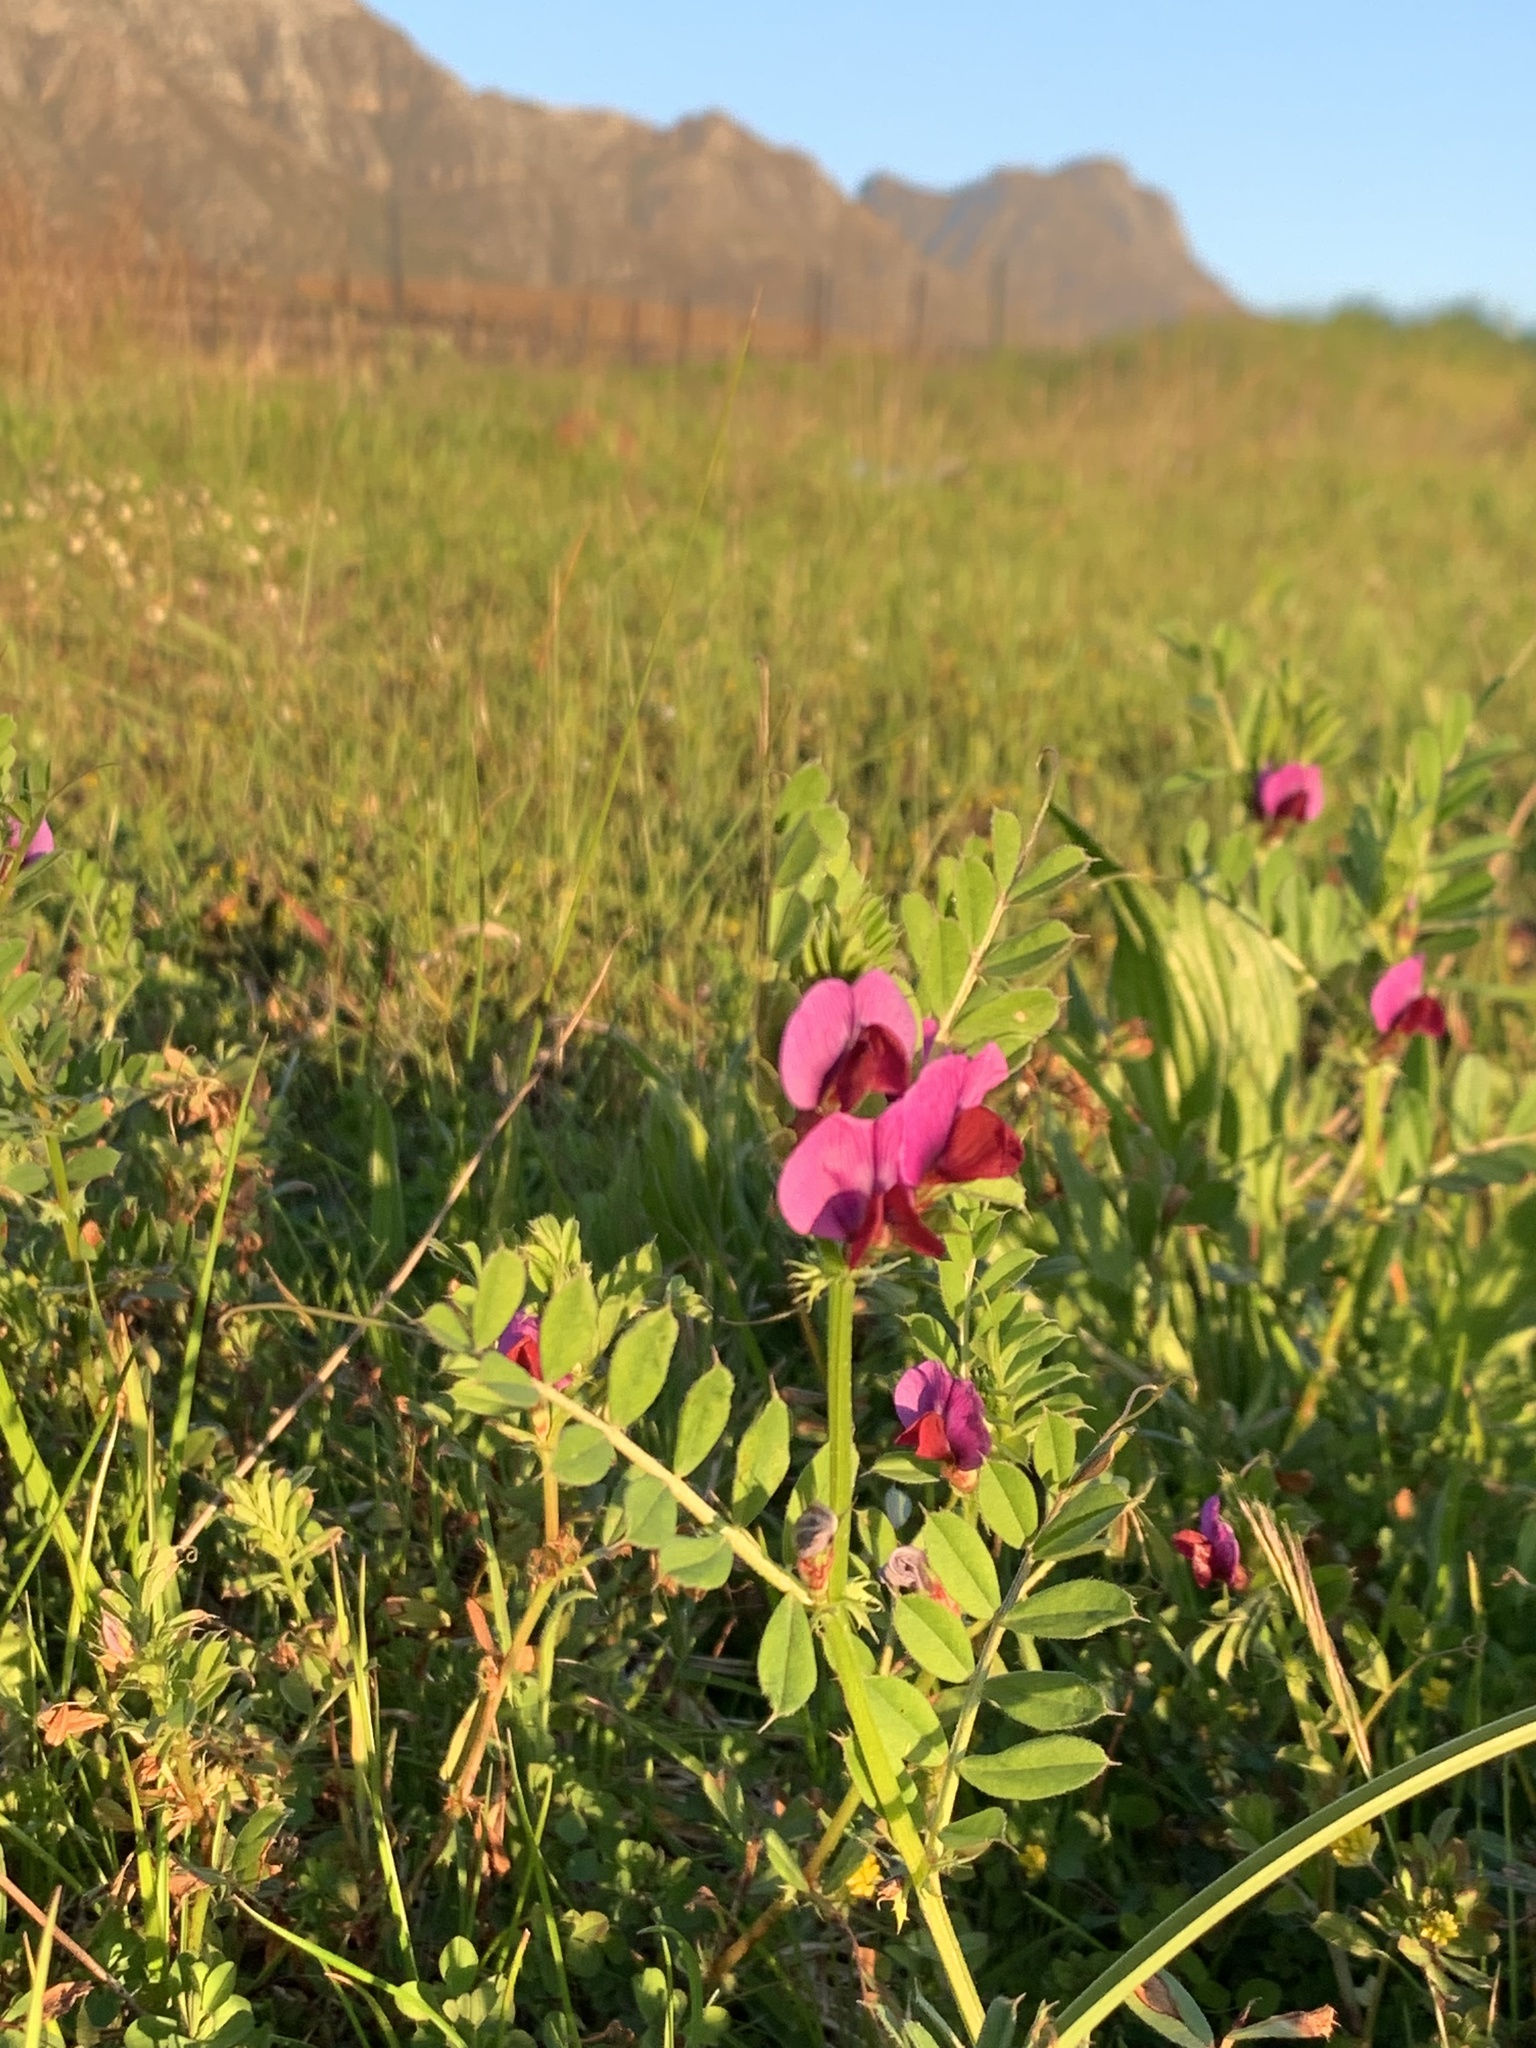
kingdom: Plantae
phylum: Tracheophyta
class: Magnoliopsida
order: Fabales
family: Fabaceae
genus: Vicia
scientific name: Vicia sativa
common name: Garden vetch
